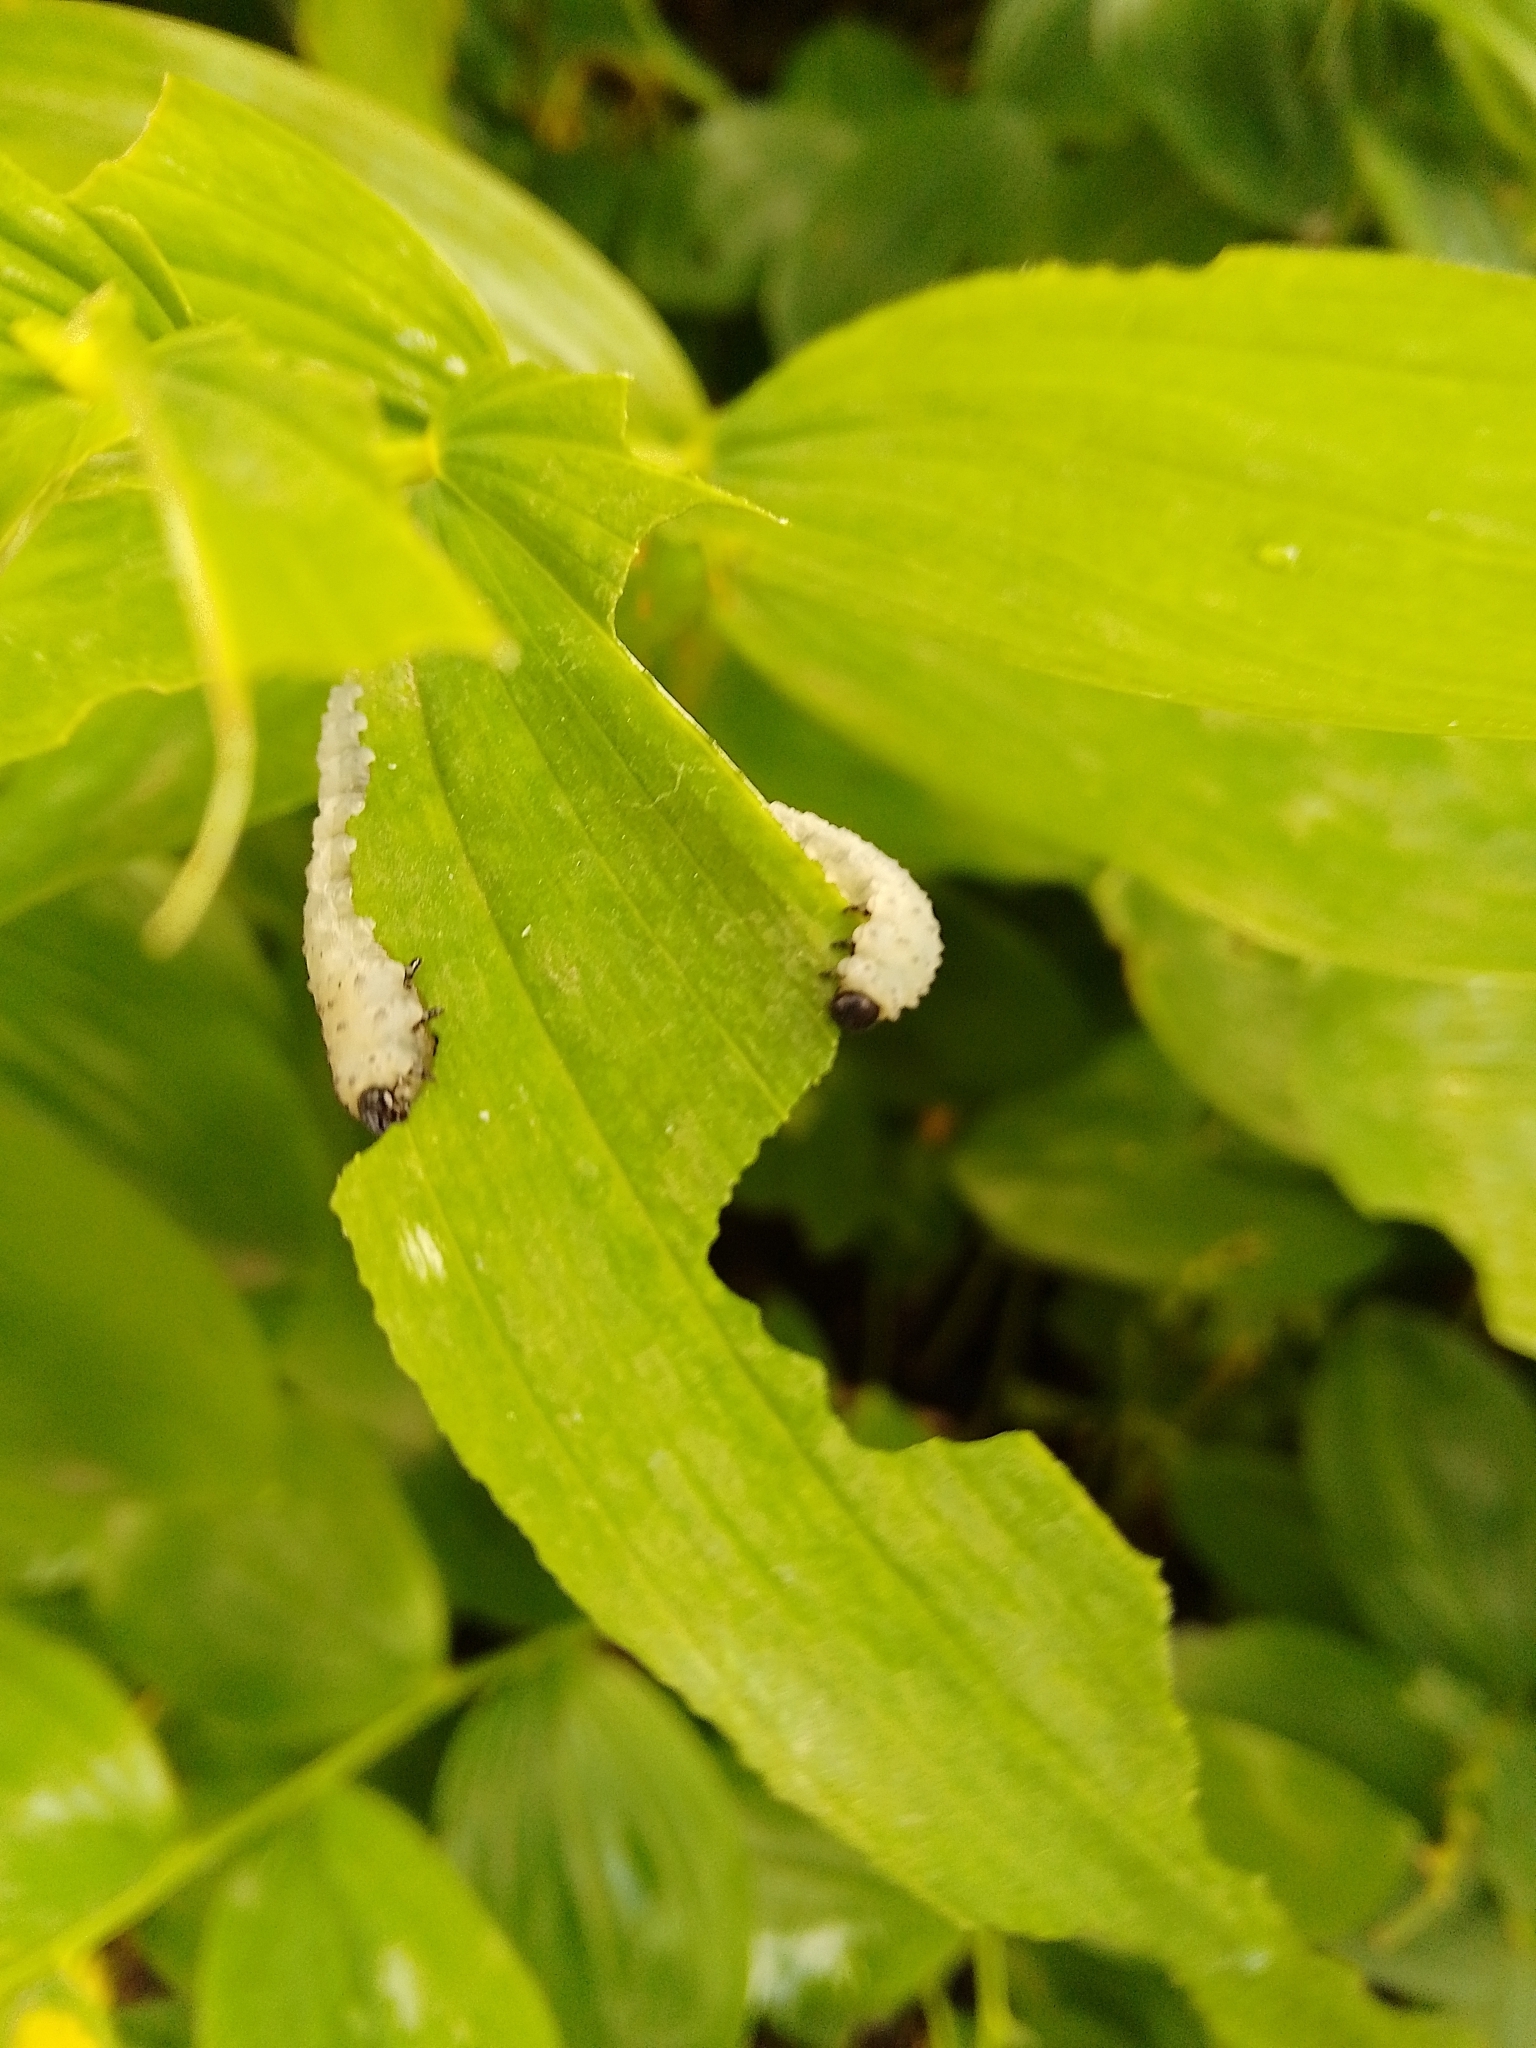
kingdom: Animalia
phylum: Arthropoda
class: Insecta
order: Hymenoptera
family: Tenthredinidae
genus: Phymatocera
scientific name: Phymatocera aterrima
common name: Solomon's-seal sawfly
